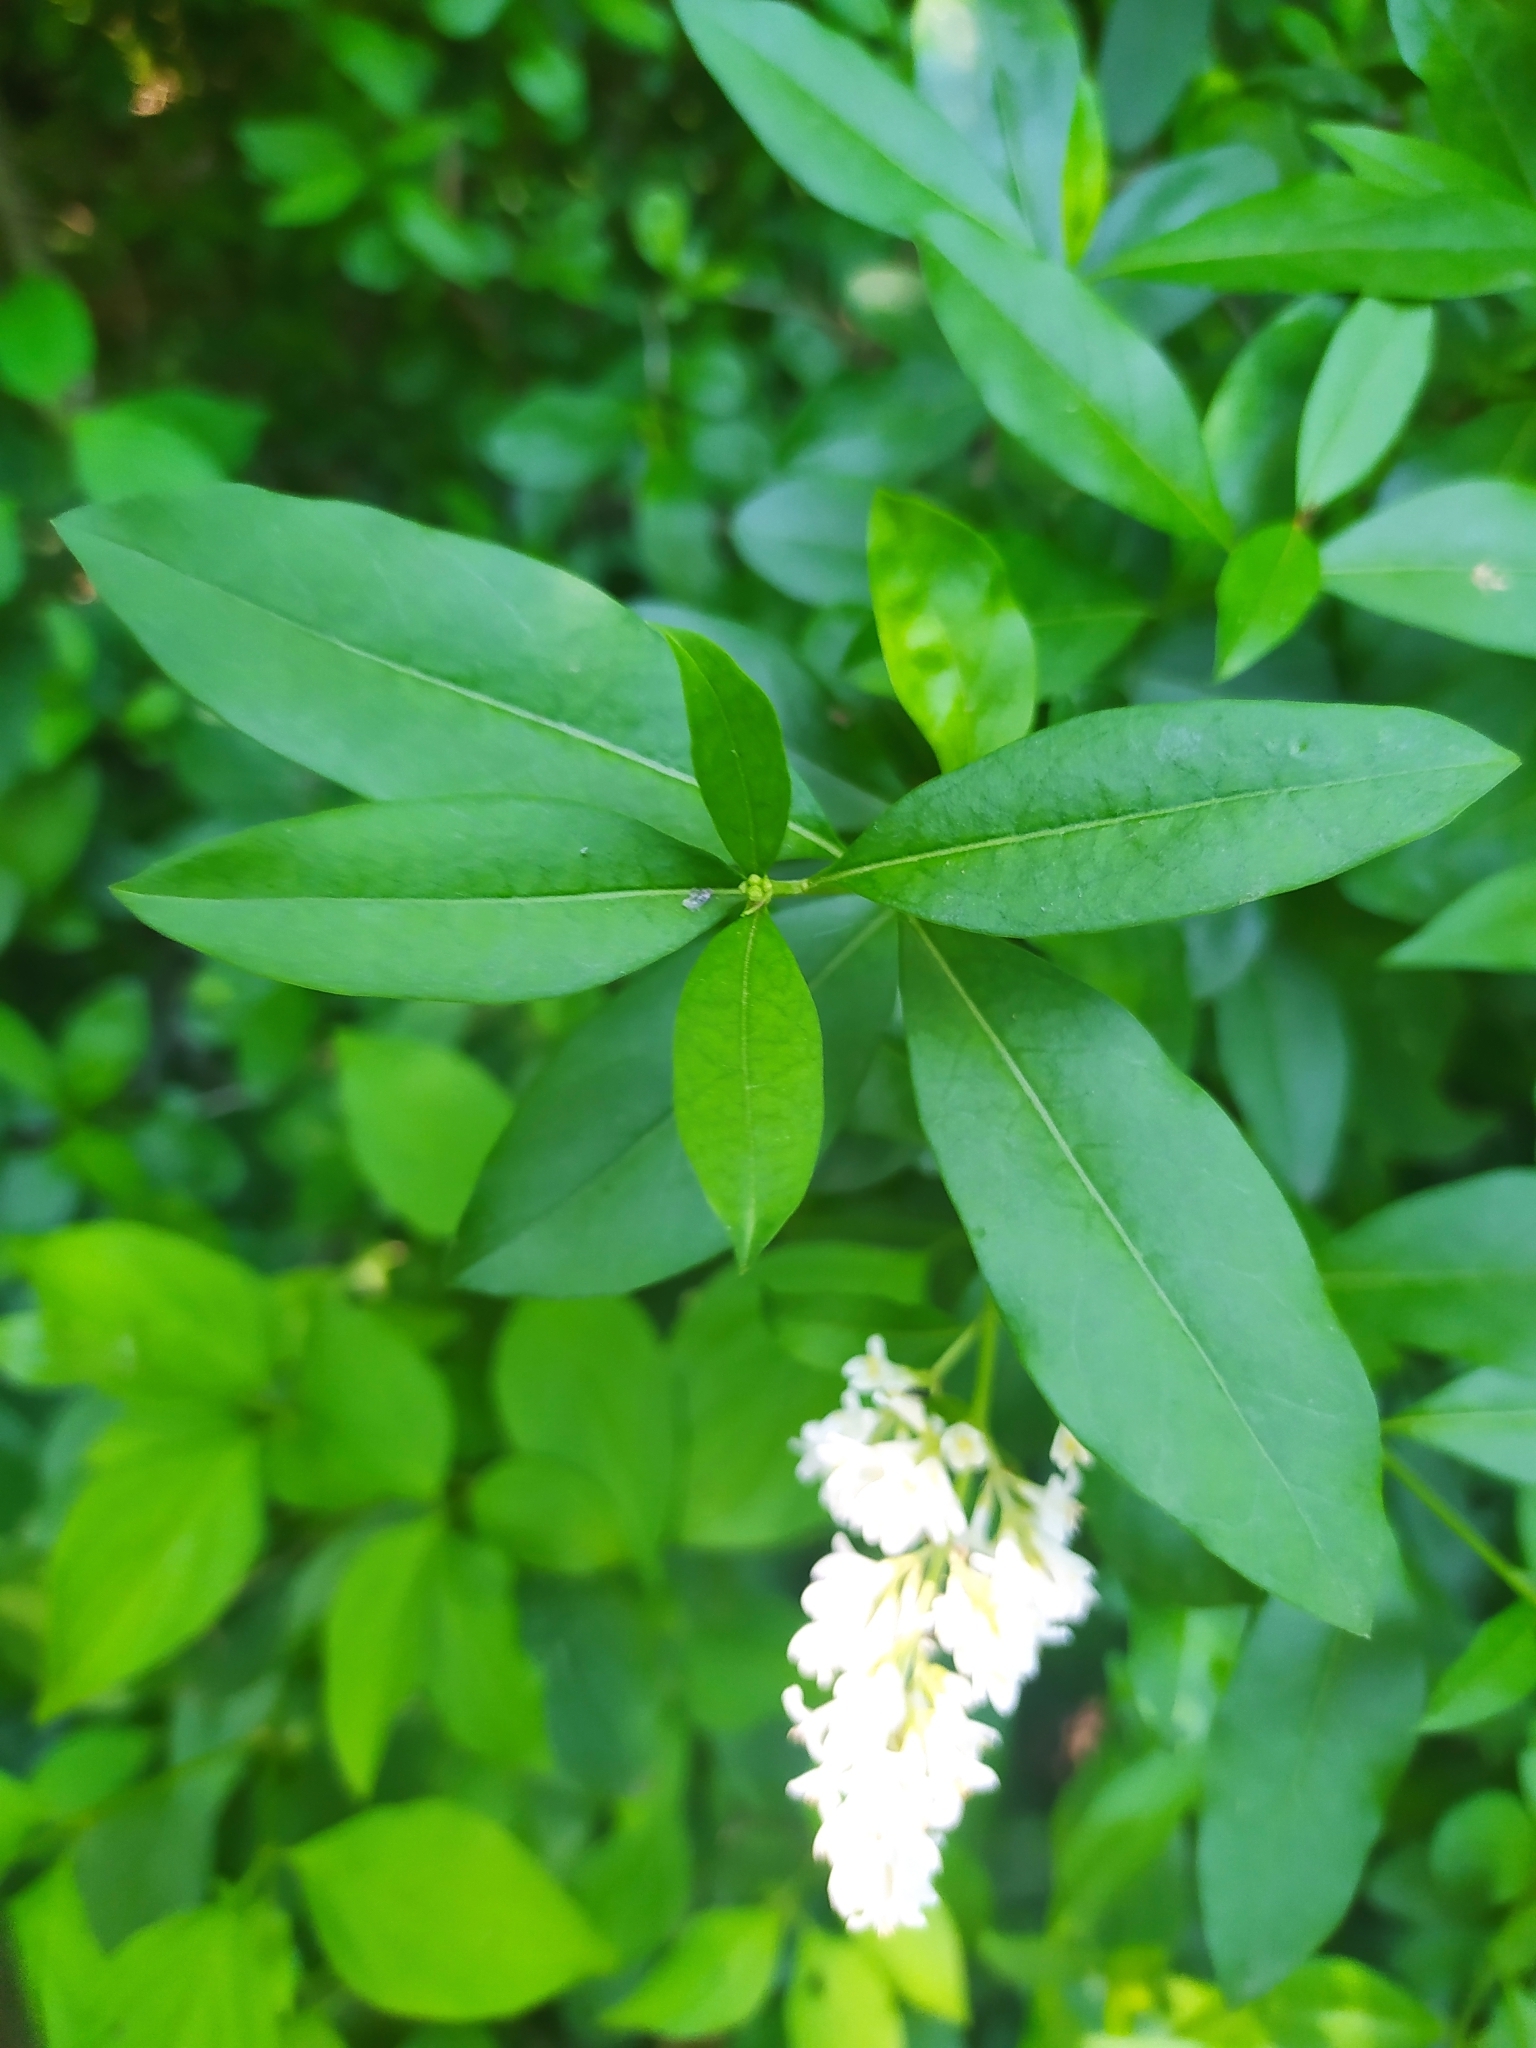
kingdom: Plantae
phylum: Tracheophyta
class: Magnoliopsida
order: Lamiales
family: Oleaceae
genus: Ligustrum
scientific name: Ligustrum vulgare
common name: Wild privet
